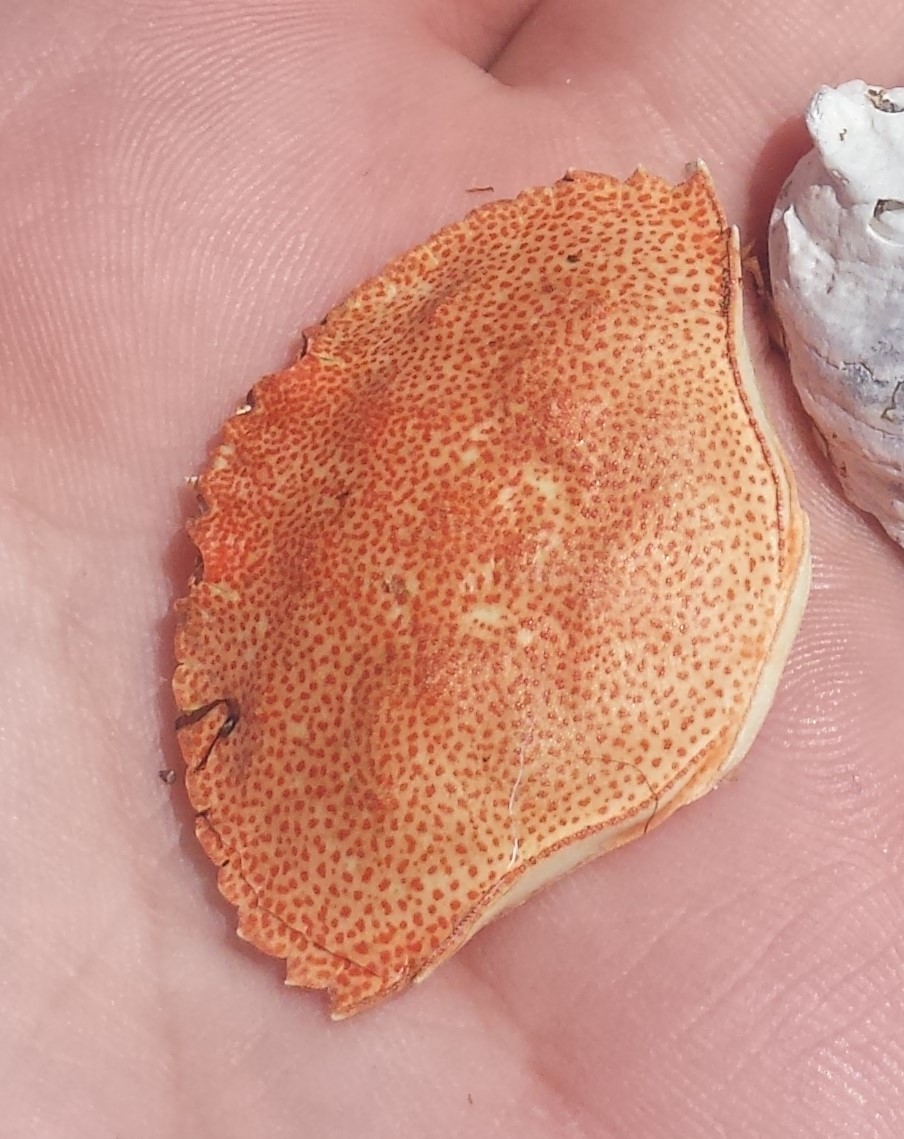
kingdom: Animalia
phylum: Arthropoda
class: Malacostraca
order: Decapoda
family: Cancridae
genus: Cancer
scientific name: Cancer irroratus
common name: Atlantic rock crab
